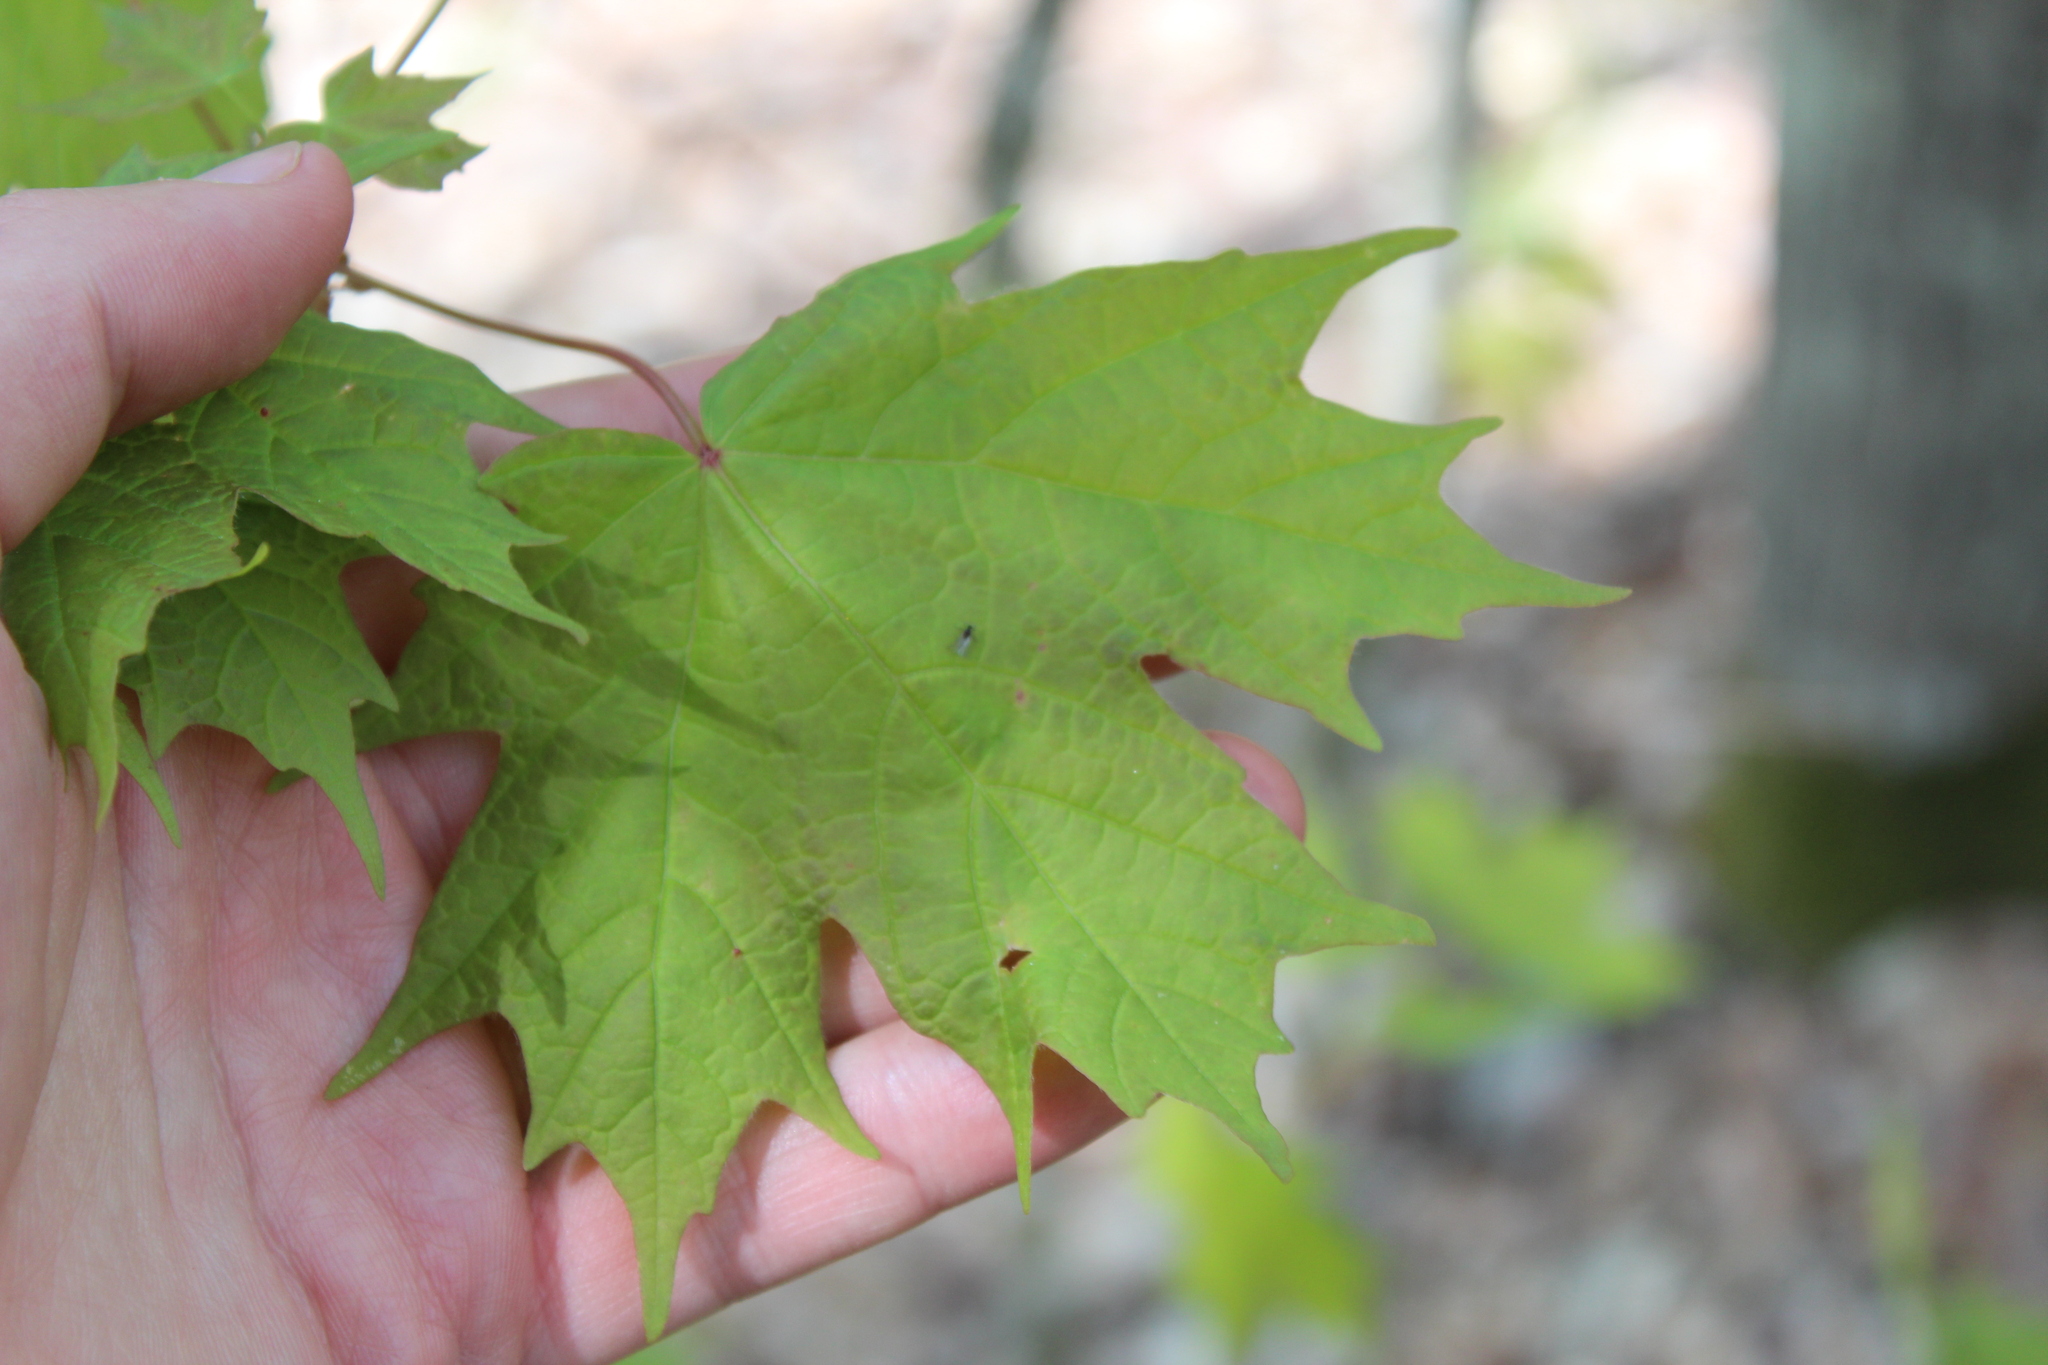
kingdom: Plantae
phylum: Tracheophyta
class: Magnoliopsida
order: Sapindales
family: Sapindaceae
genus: Acer
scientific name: Acer saccharum
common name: Sugar maple
